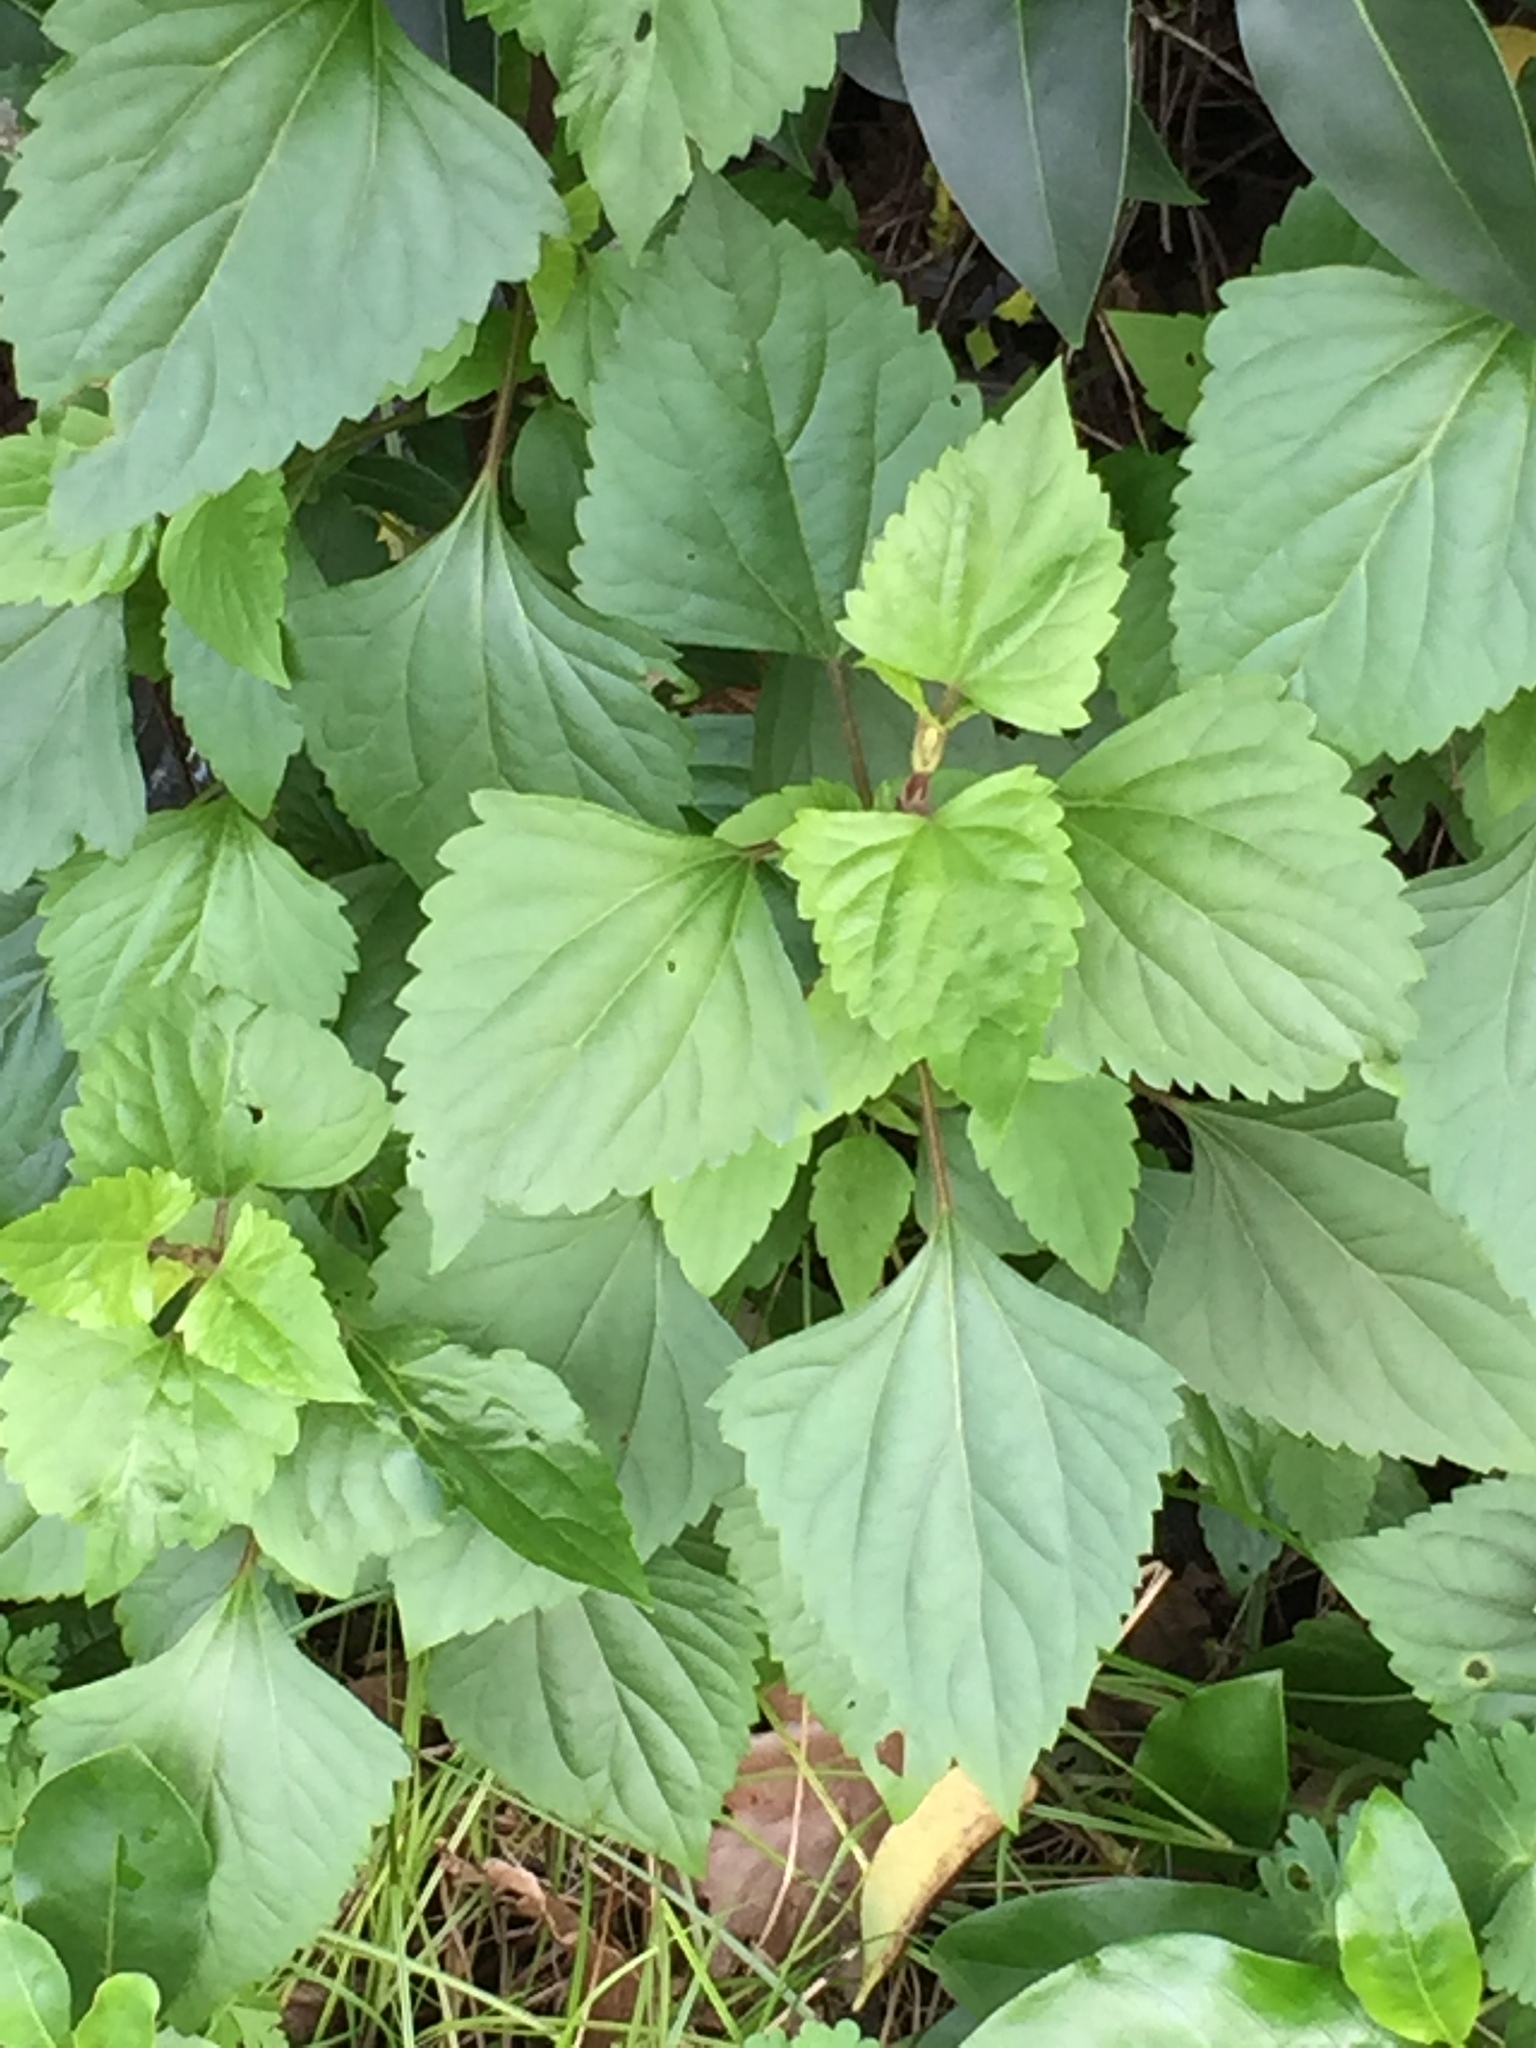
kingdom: Plantae
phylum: Tracheophyta
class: Magnoliopsida
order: Asterales
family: Asteraceae
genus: Ageratina
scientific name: Ageratina adenophora
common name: Sticky snakeroot
